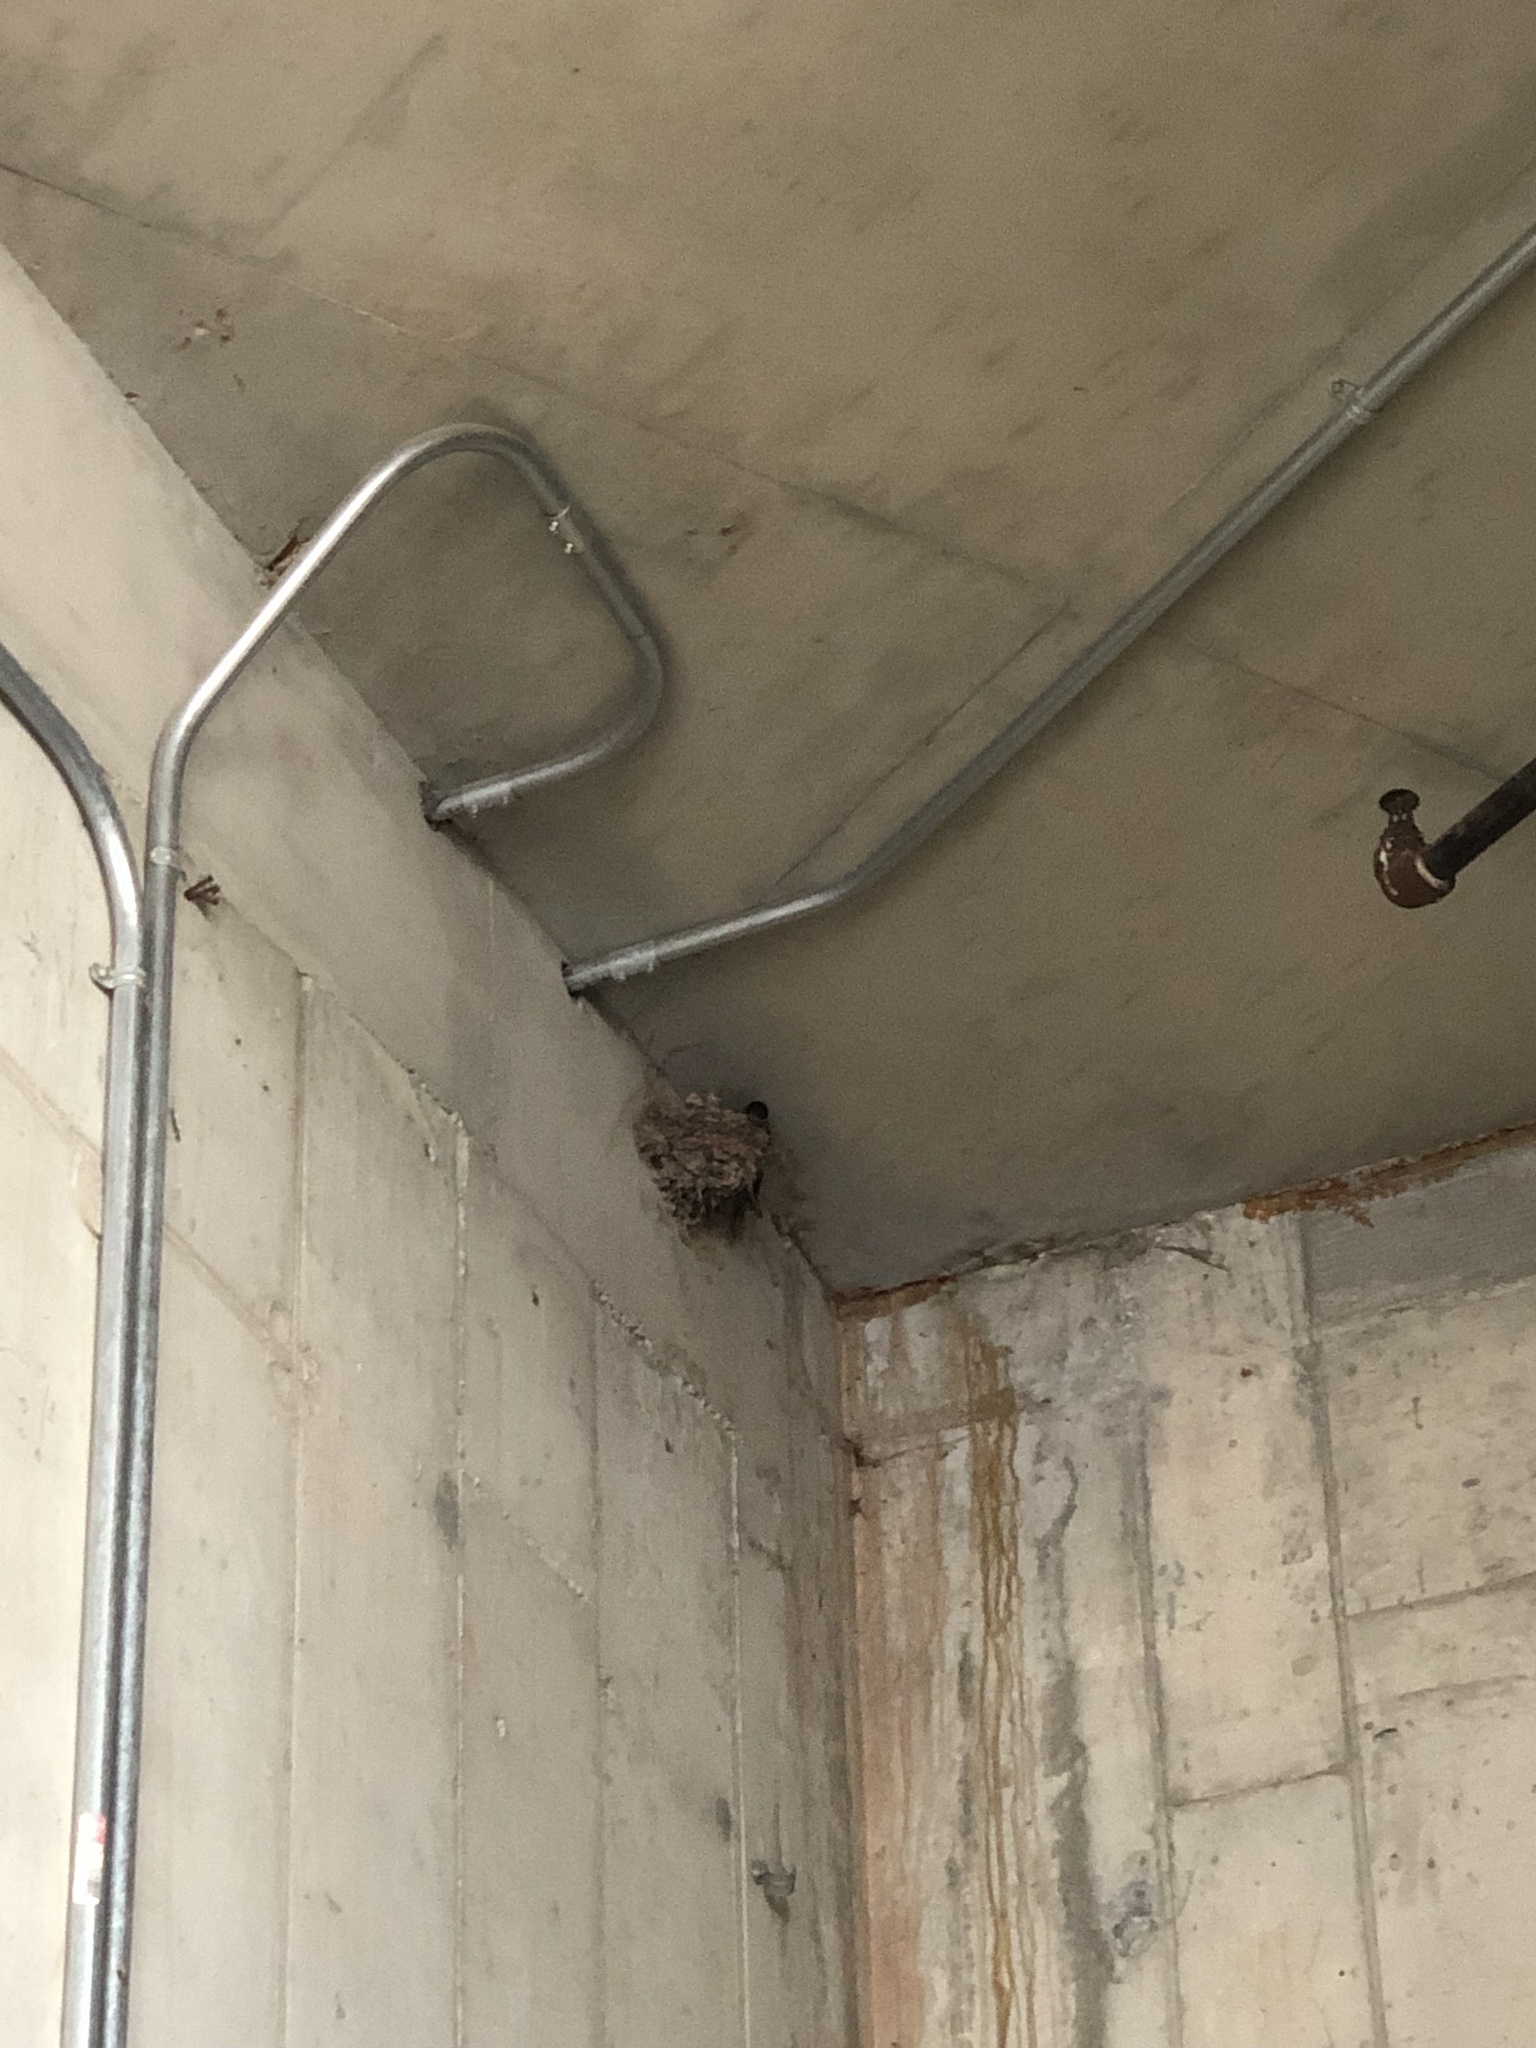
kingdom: Animalia
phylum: Chordata
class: Aves
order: Passeriformes
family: Hirundinidae
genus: Hirundo
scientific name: Hirundo rustica
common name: Barn swallow
